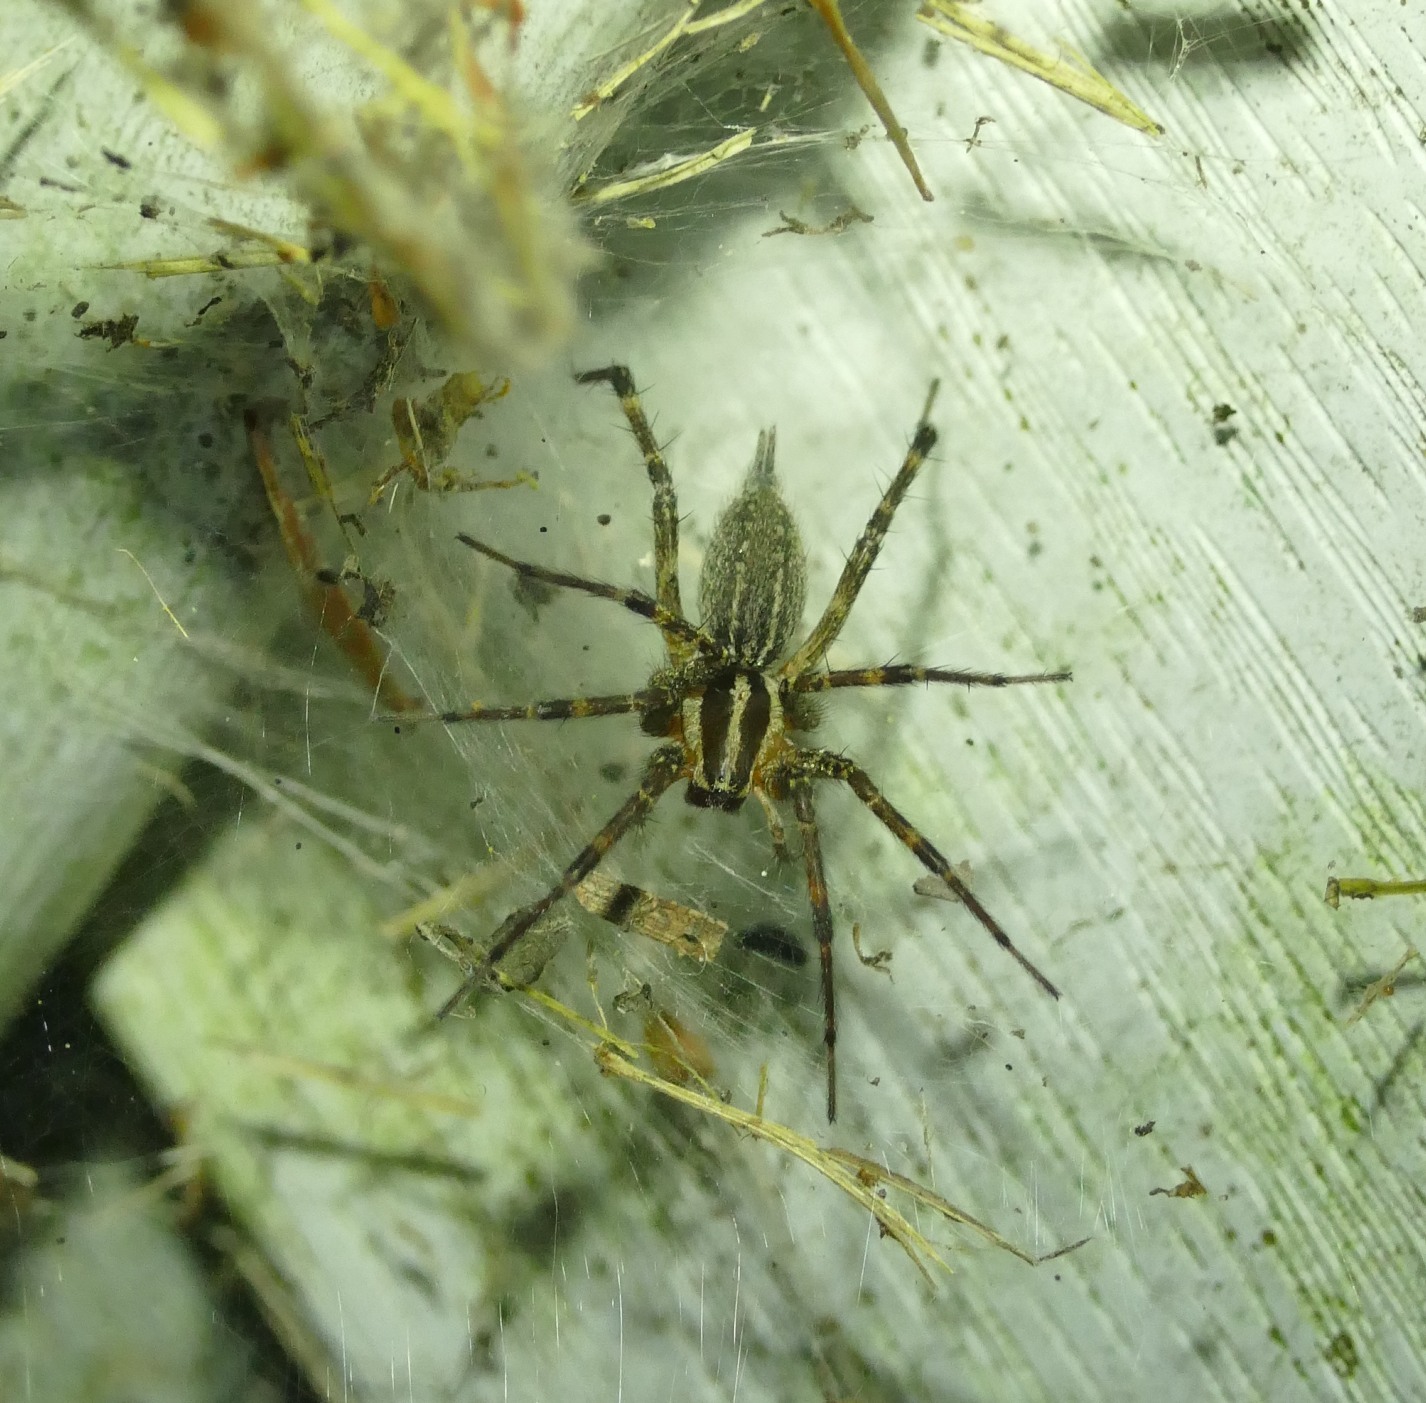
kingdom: Animalia
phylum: Arthropoda
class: Arachnida
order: Araneae
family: Agelenidae
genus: Agelenopsis
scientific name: Agelenopsis
